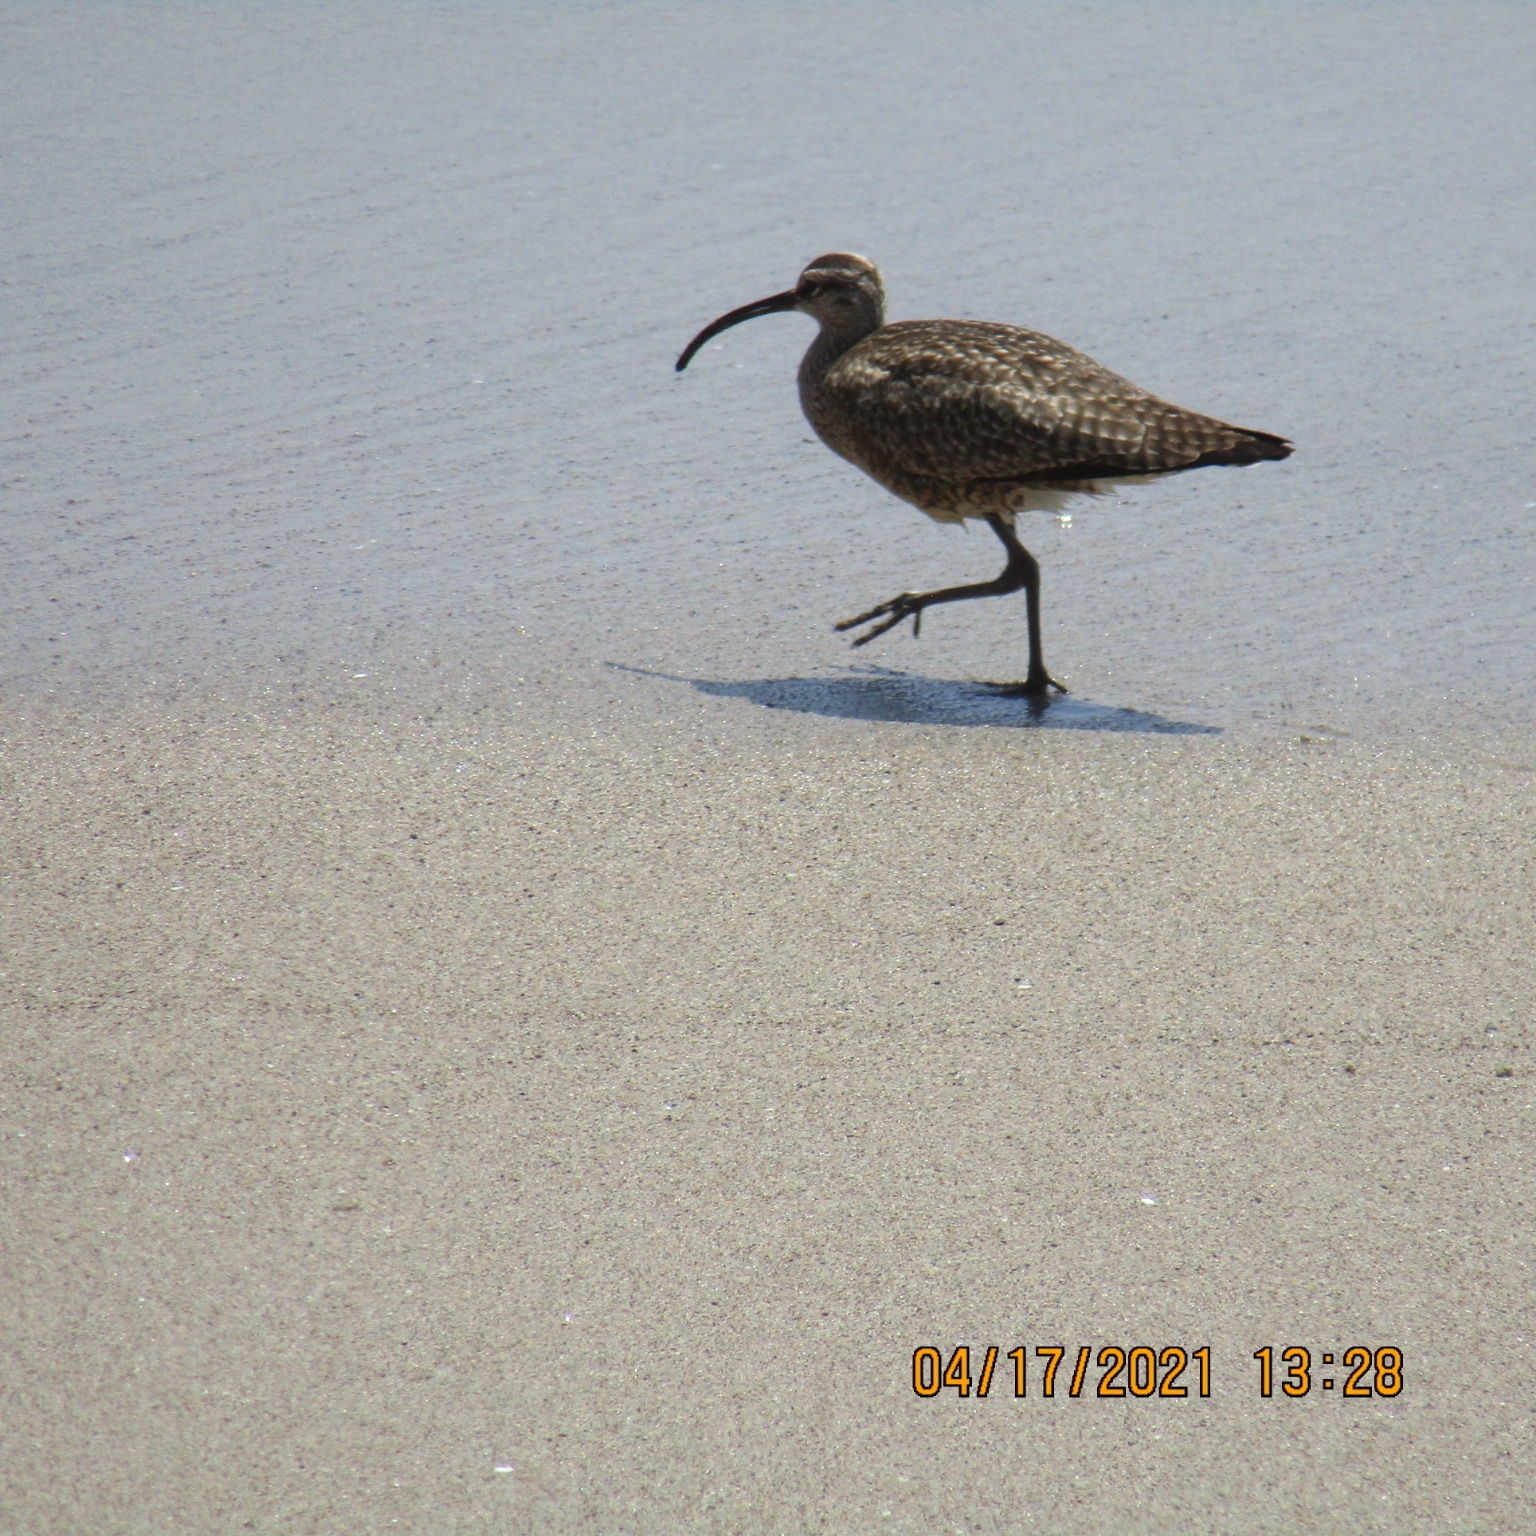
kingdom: Animalia
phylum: Chordata
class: Aves
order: Charadriiformes
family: Scolopacidae
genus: Numenius
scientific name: Numenius phaeopus
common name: Whimbrel
